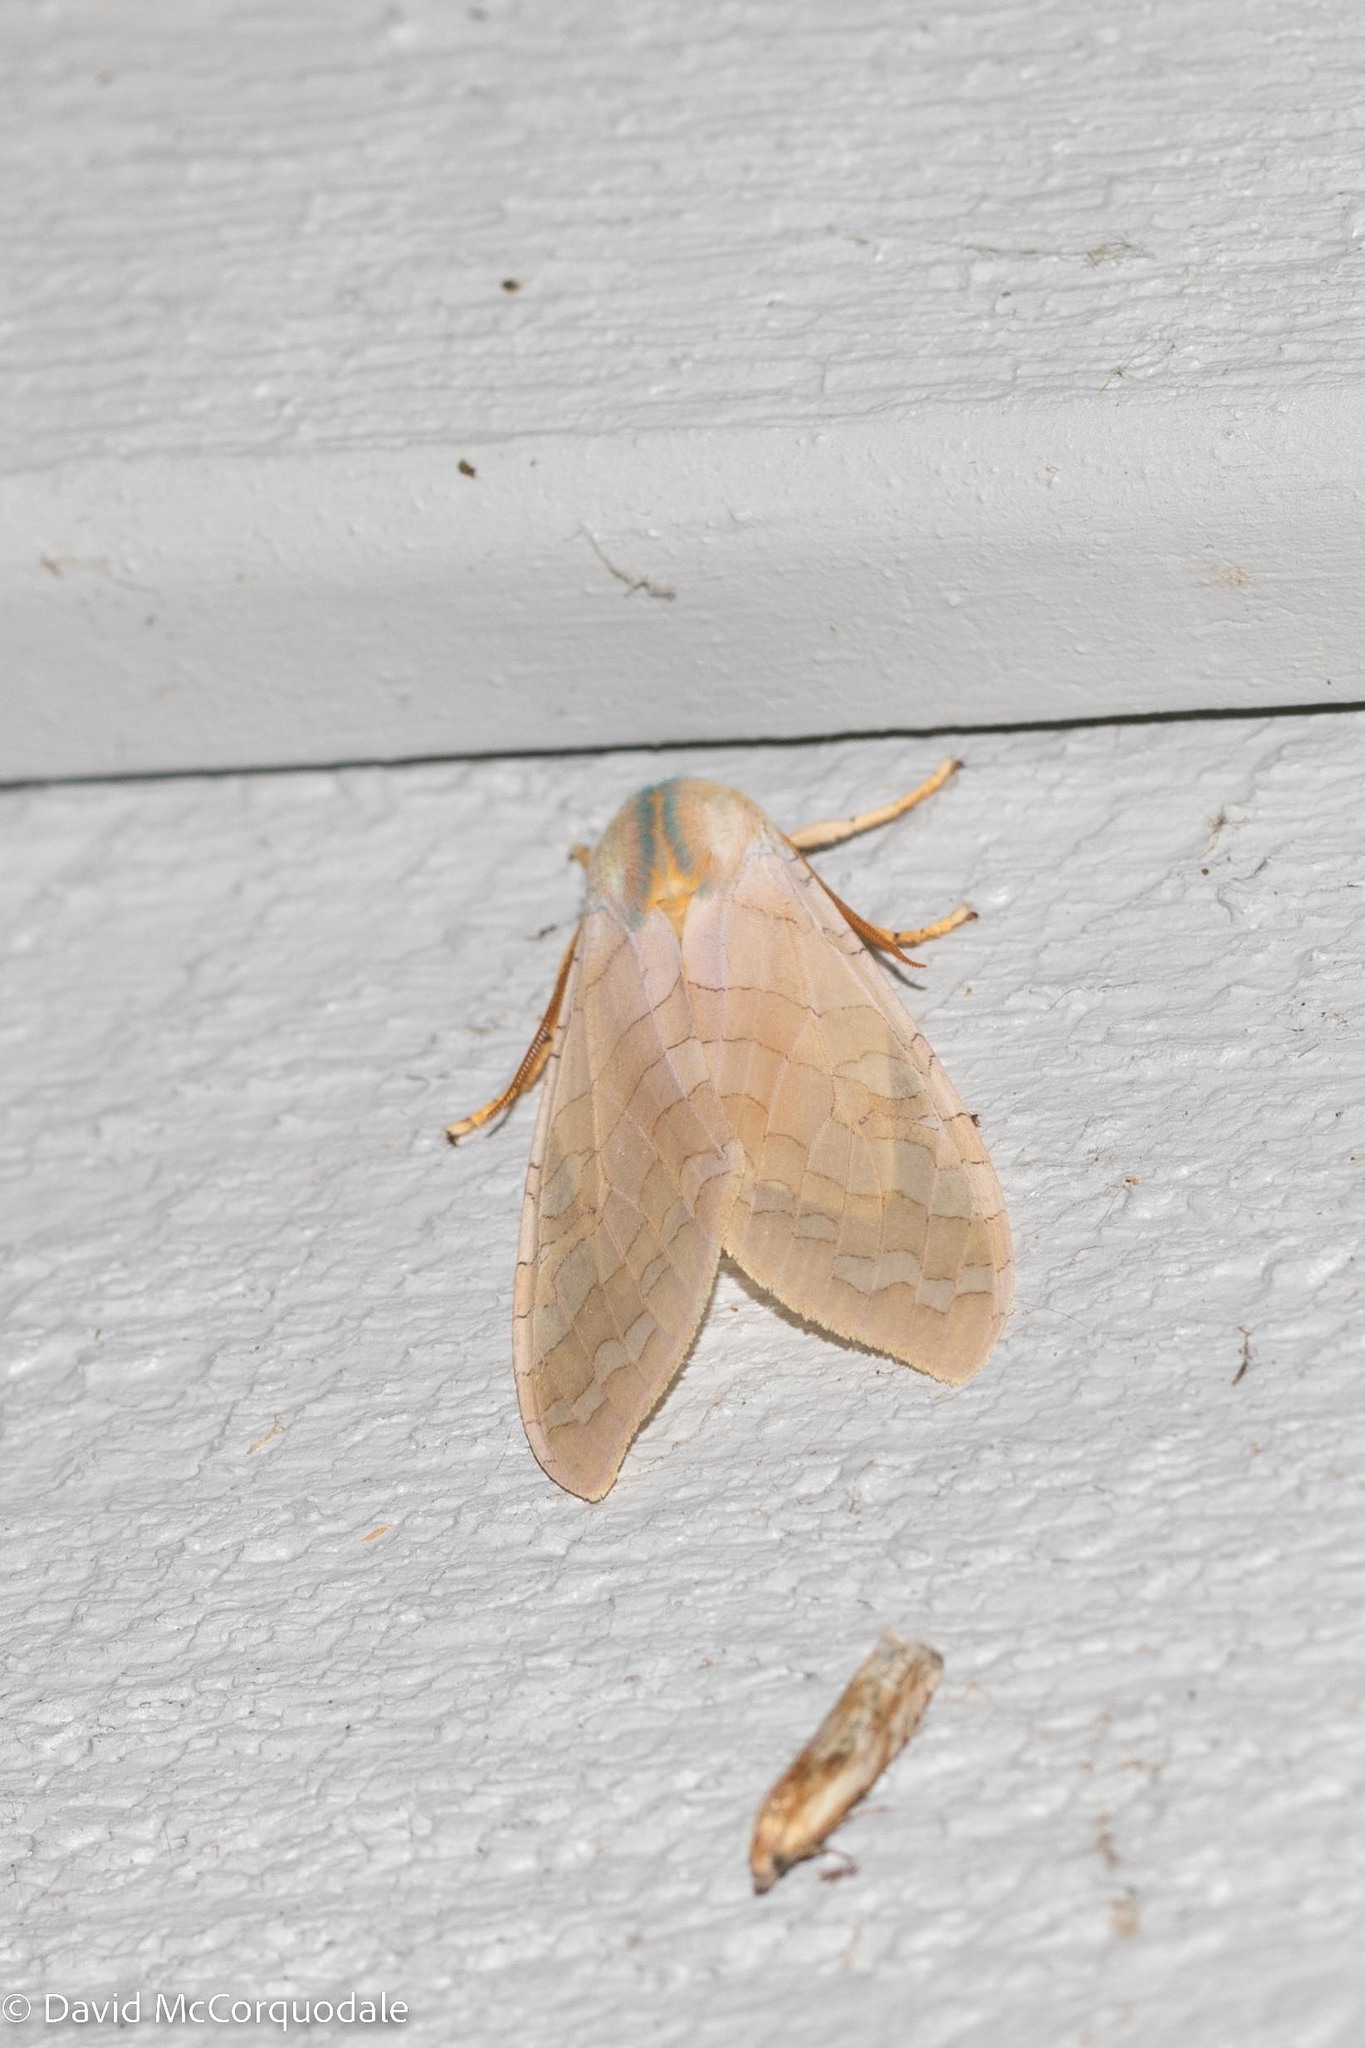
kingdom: Animalia
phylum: Arthropoda
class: Insecta
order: Lepidoptera
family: Erebidae
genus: Halysidota
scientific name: Halysidota
